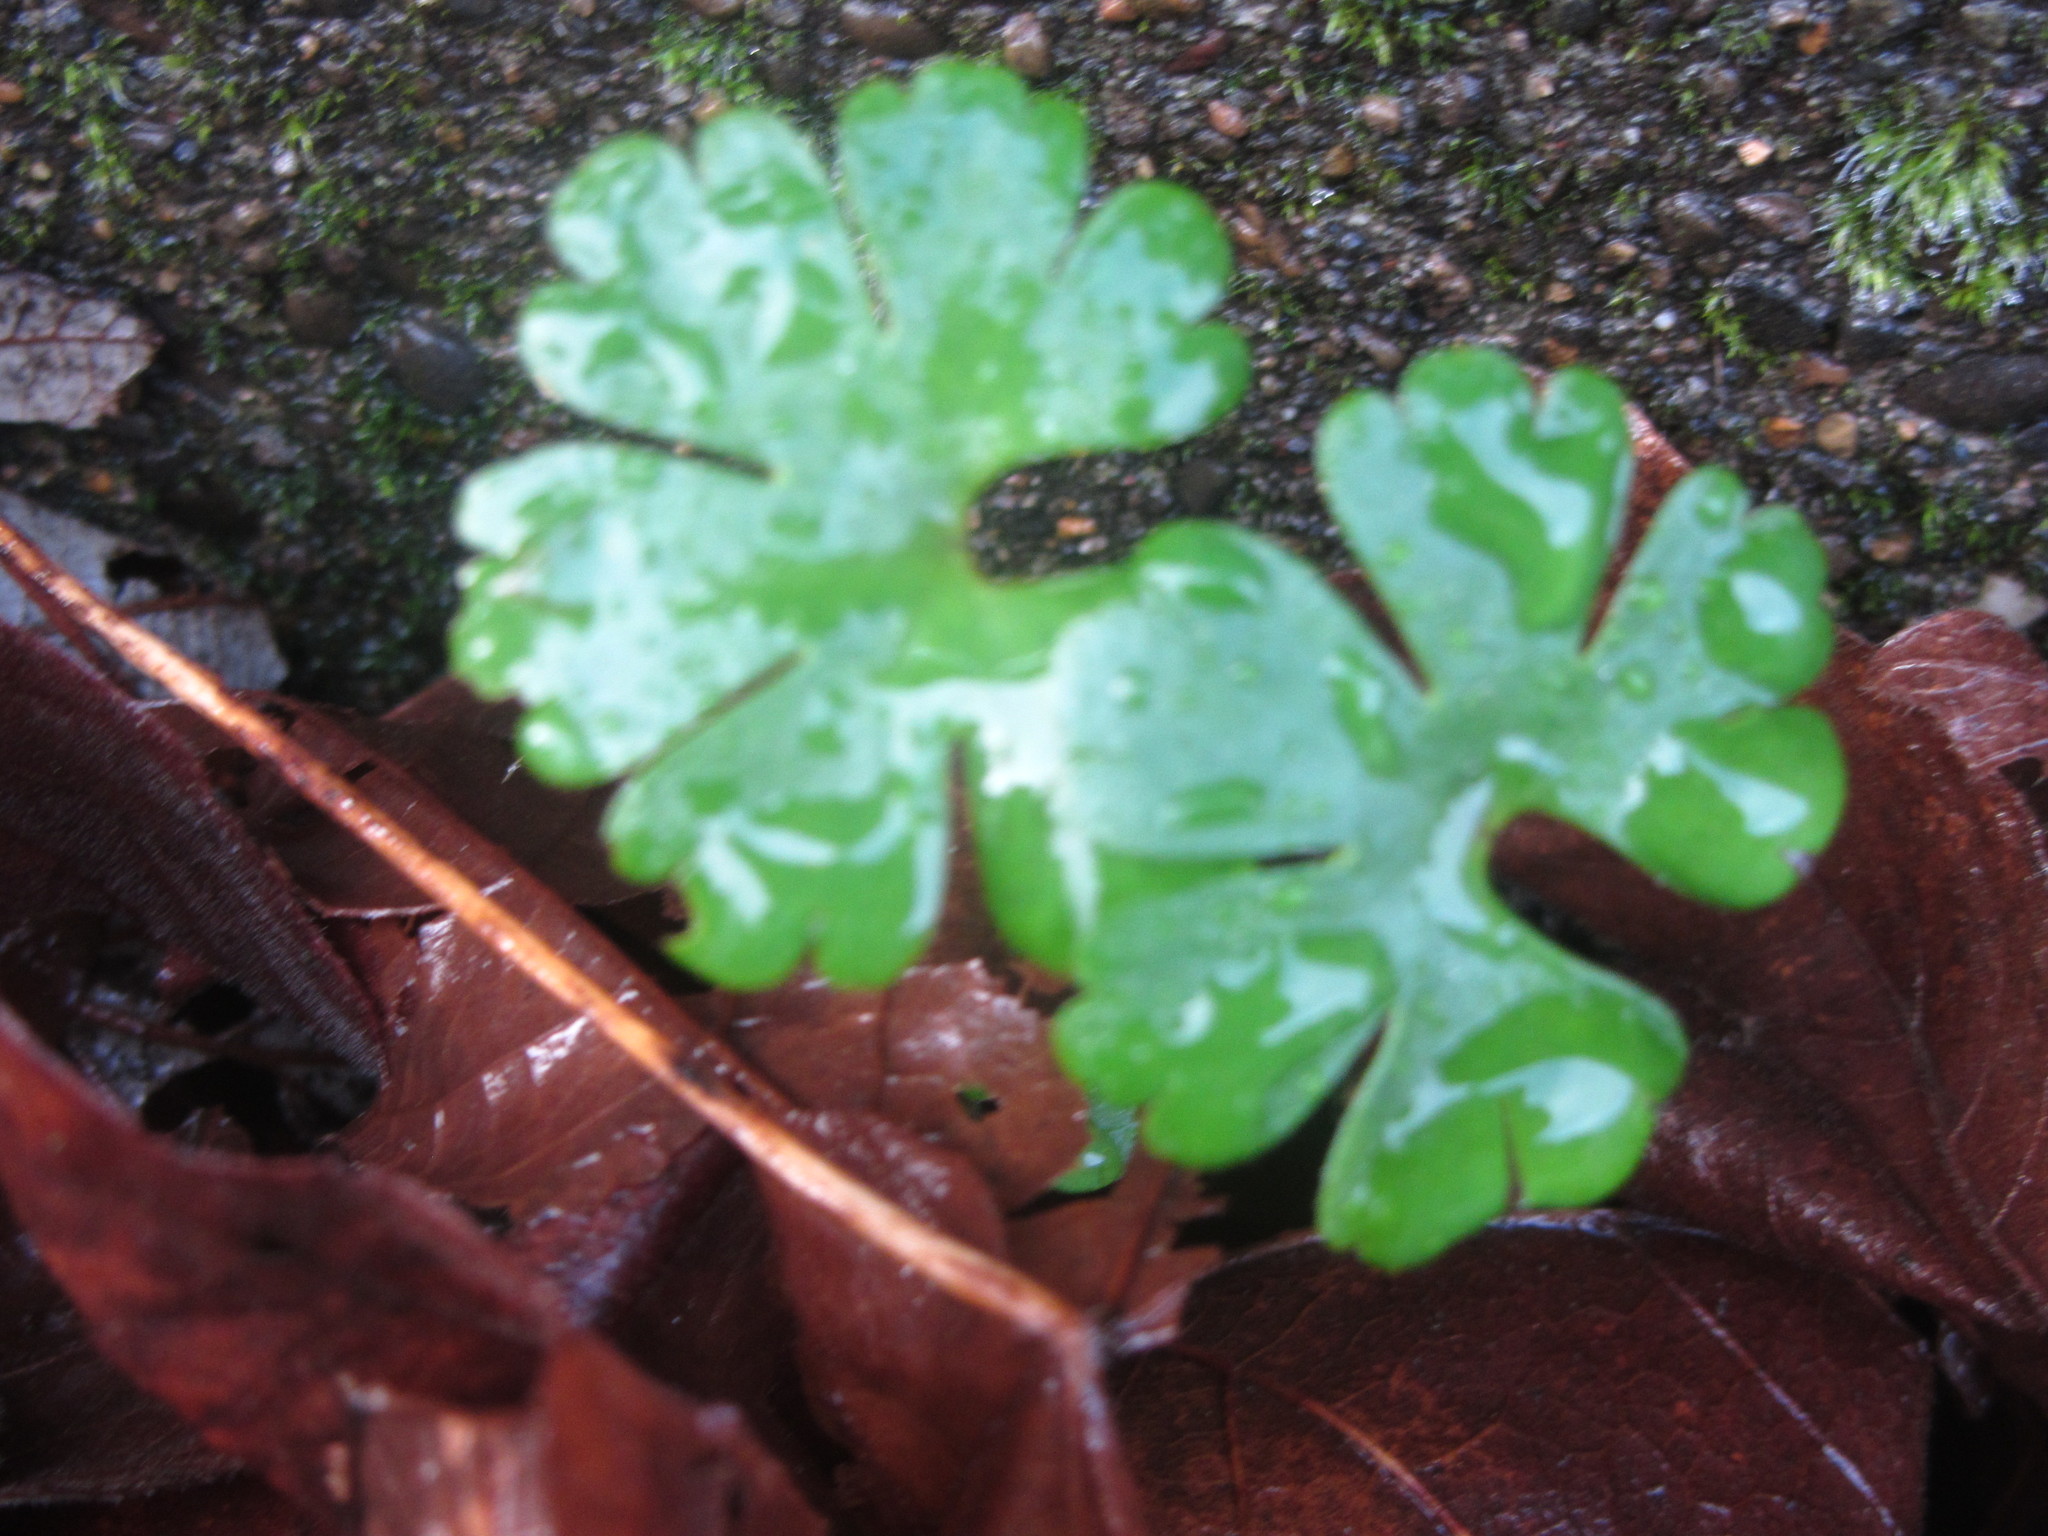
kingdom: Plantae
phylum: Tracheophyta
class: Magnoliopsida
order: Geraniales
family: Geraniaceae
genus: Geranium
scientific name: Geranium lucidum
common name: Shining crane's-bill
